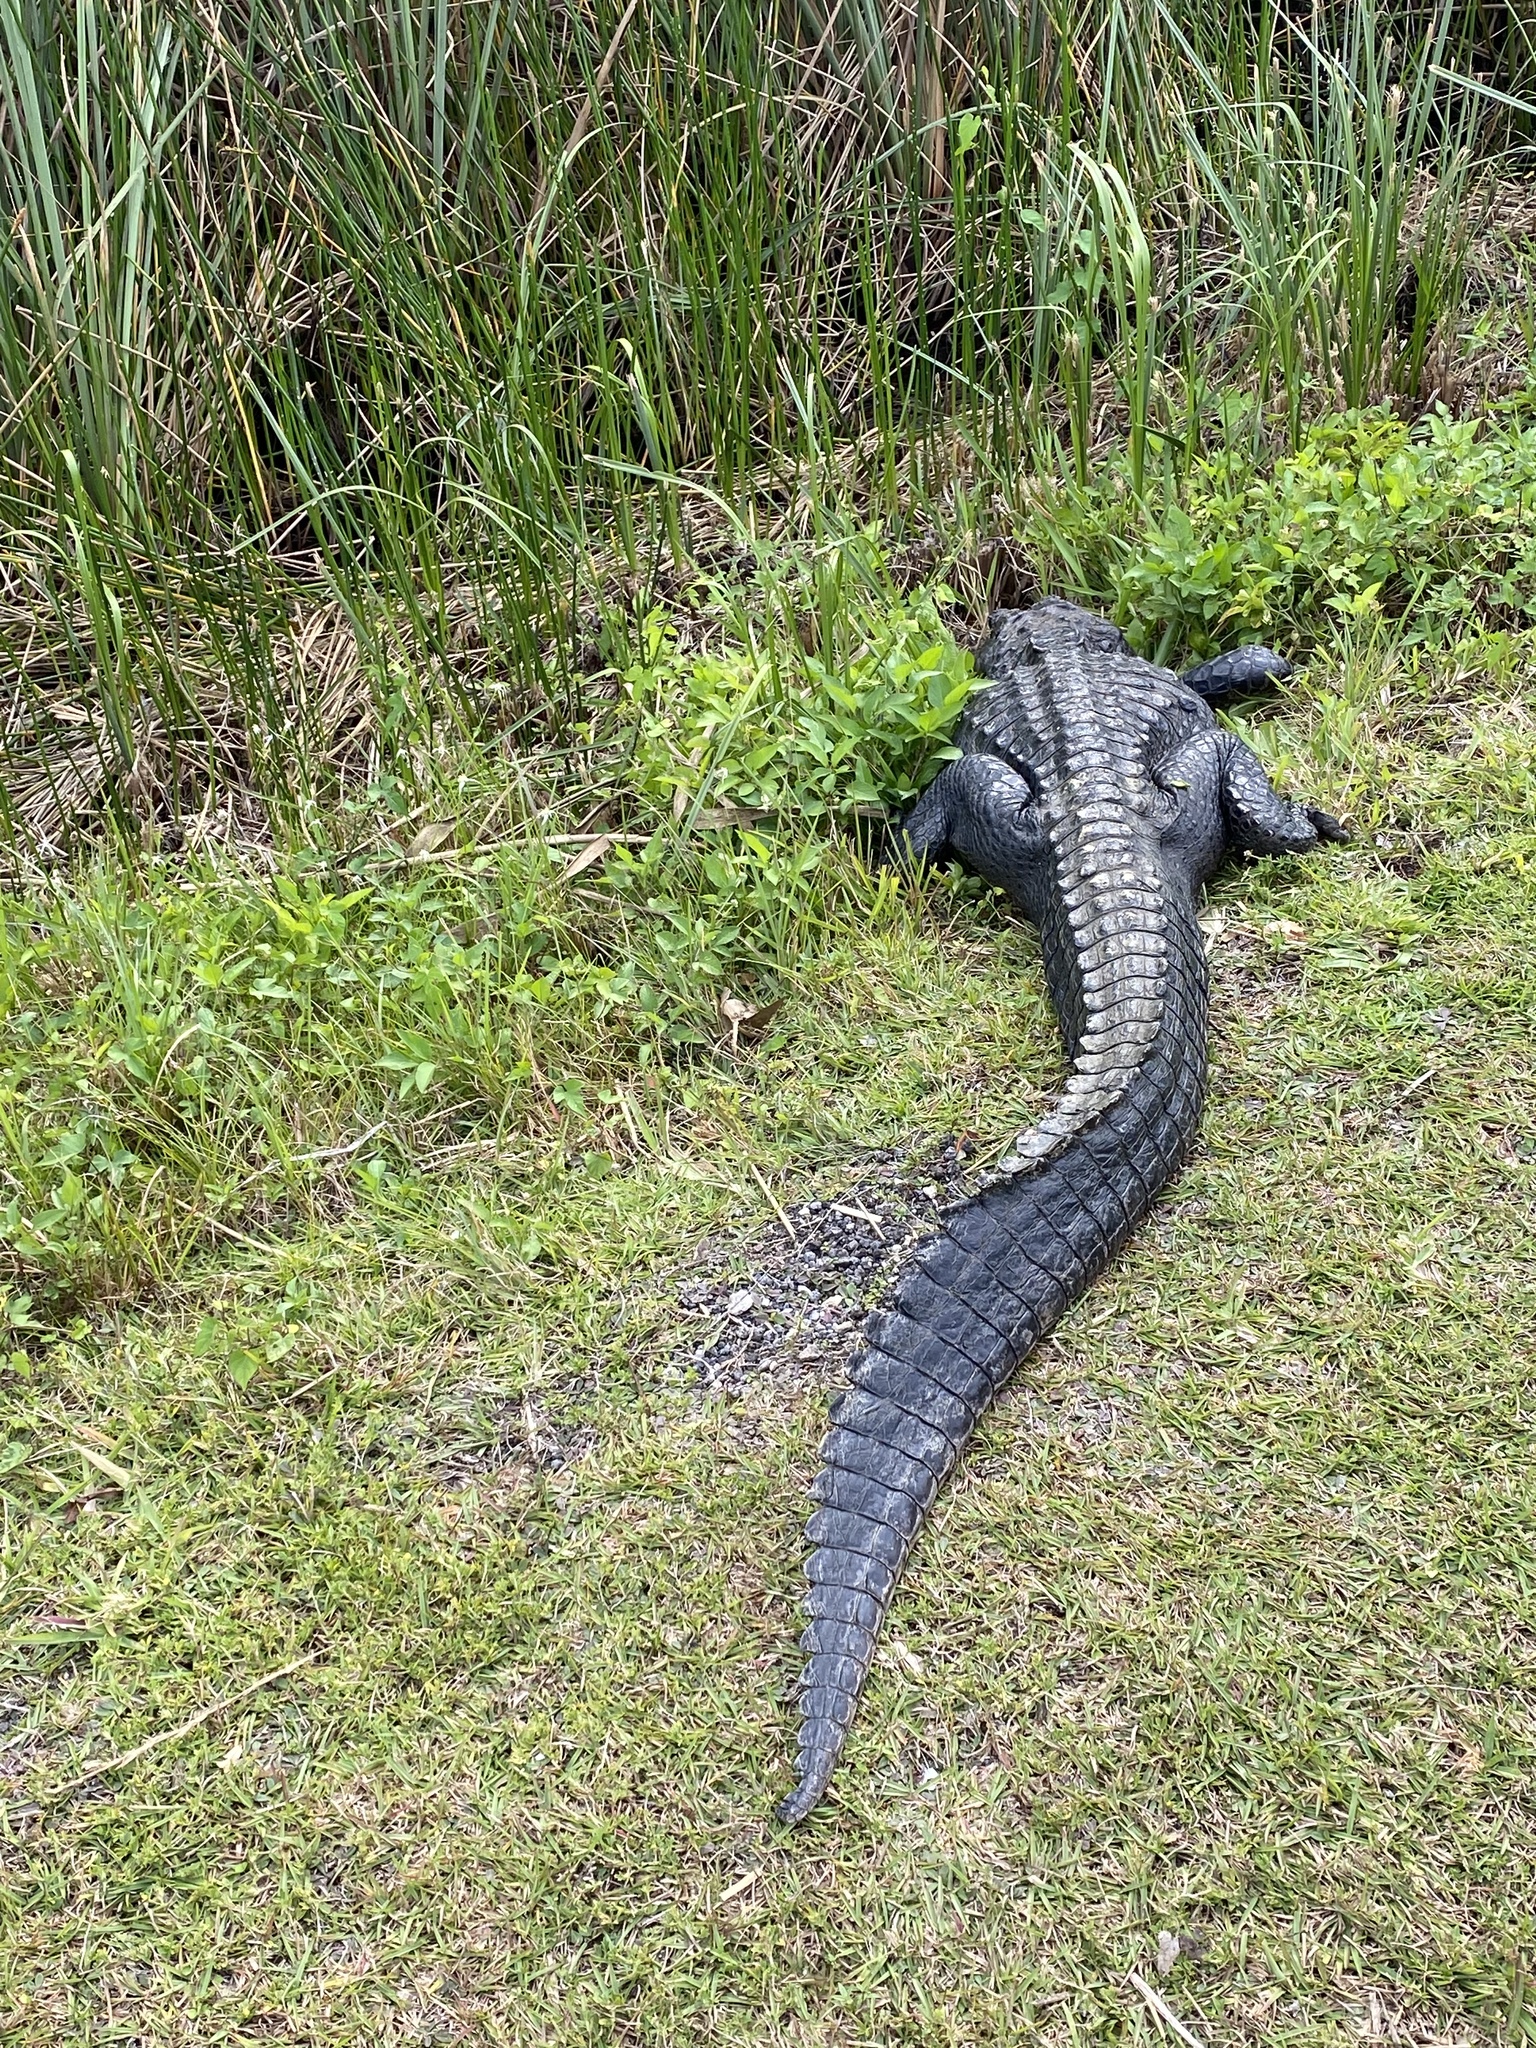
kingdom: Animalia
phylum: Chordata
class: Crocodylia
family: Alligatoridae
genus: Alligator
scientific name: Alligator mississippiensis
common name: American alligator
